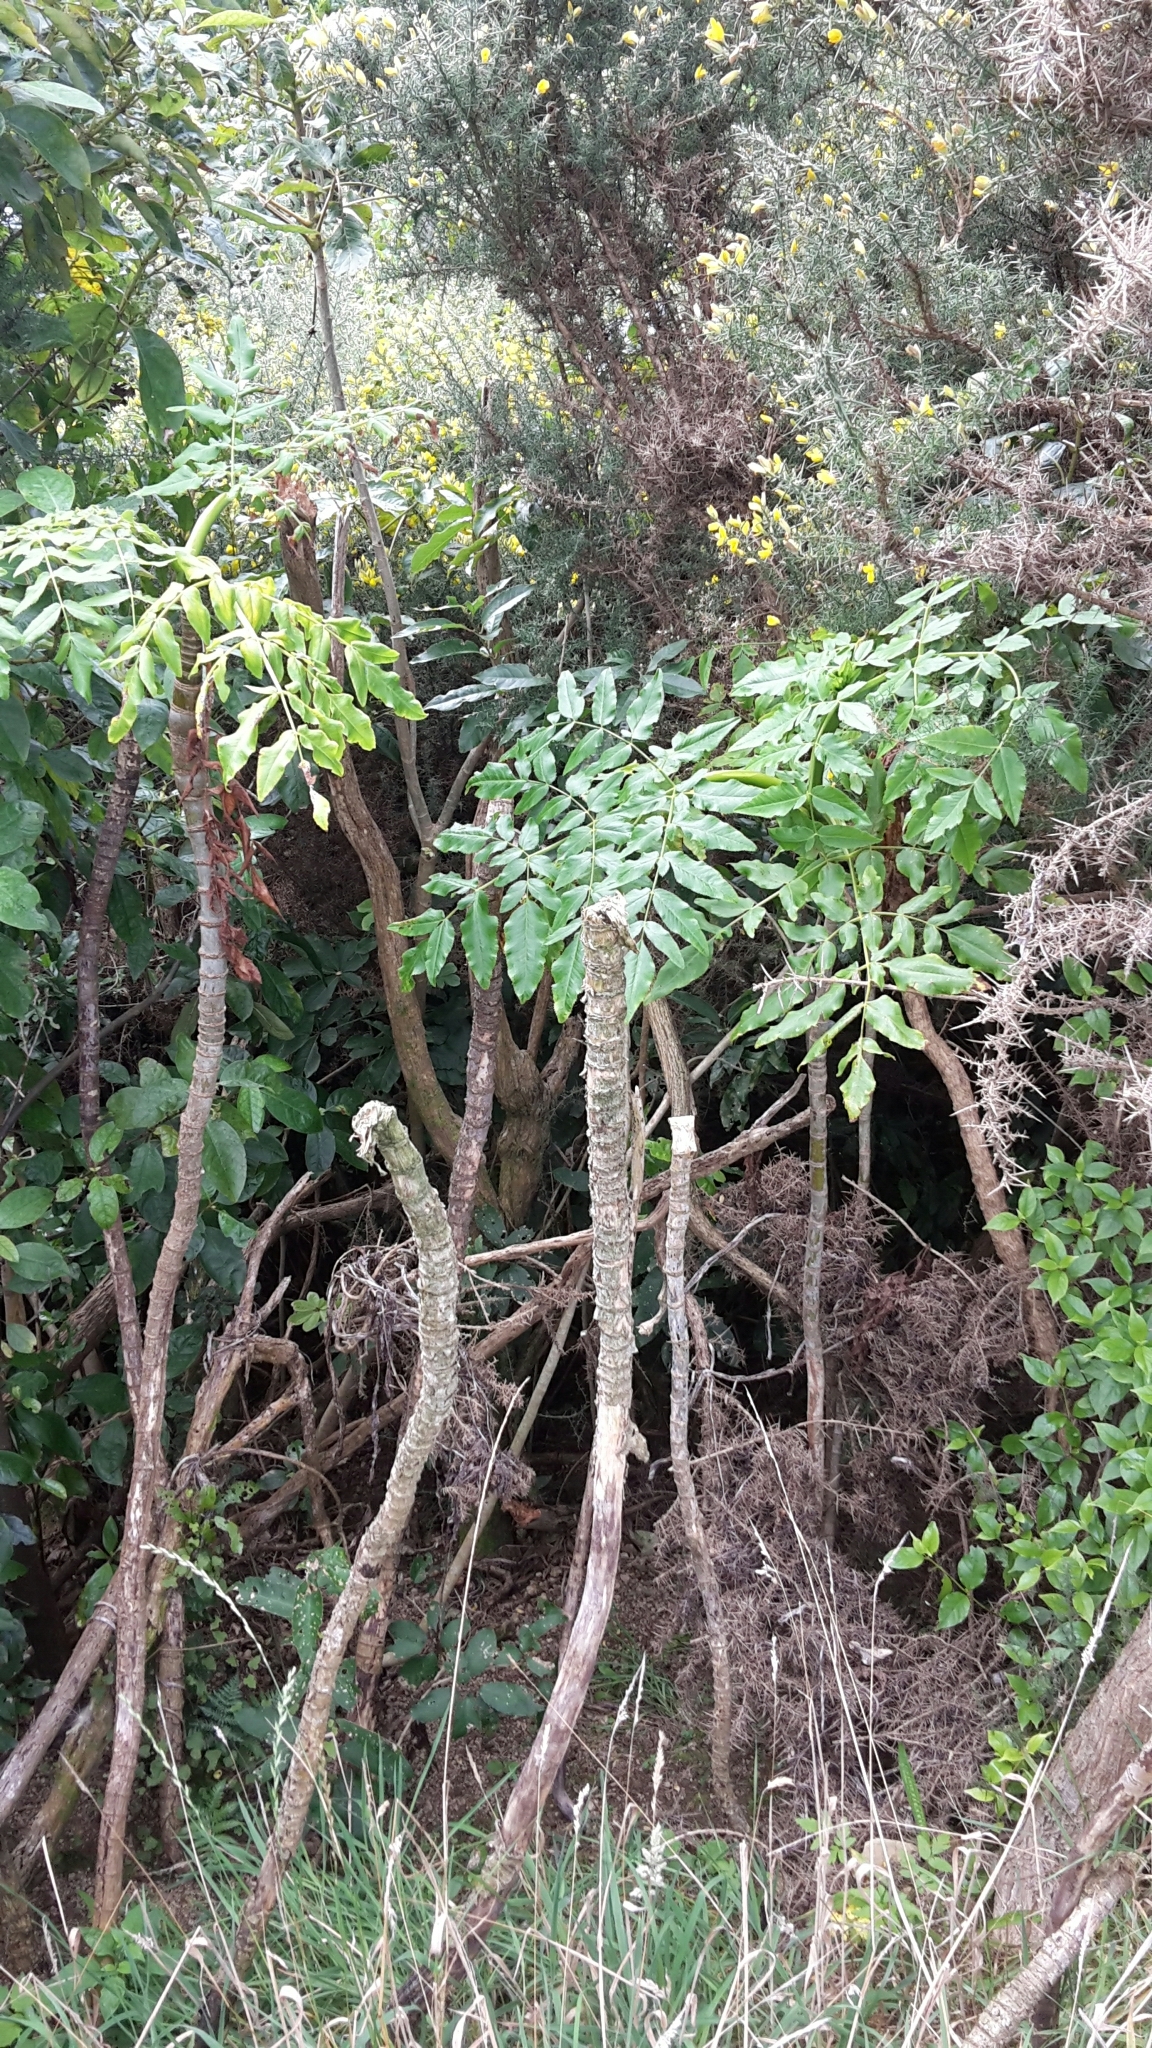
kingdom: Plantae
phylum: Tracheophyta
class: Magnoliopsida
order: Apiales
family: Apiaceae
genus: Daucus
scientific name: Daucus decipiens
